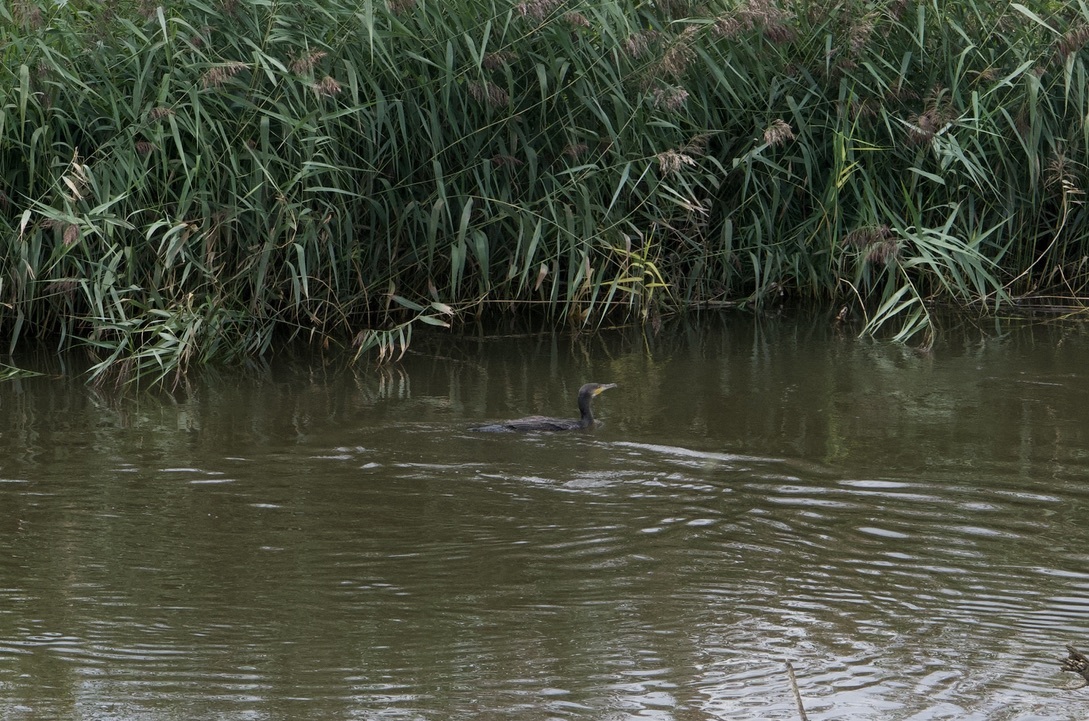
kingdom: Animalia
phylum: Chordata
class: Aves
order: Suliformes
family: Phalacrocoracidae
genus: Phalacrocorax
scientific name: Phalacrocorax carbo
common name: Great cormorant
